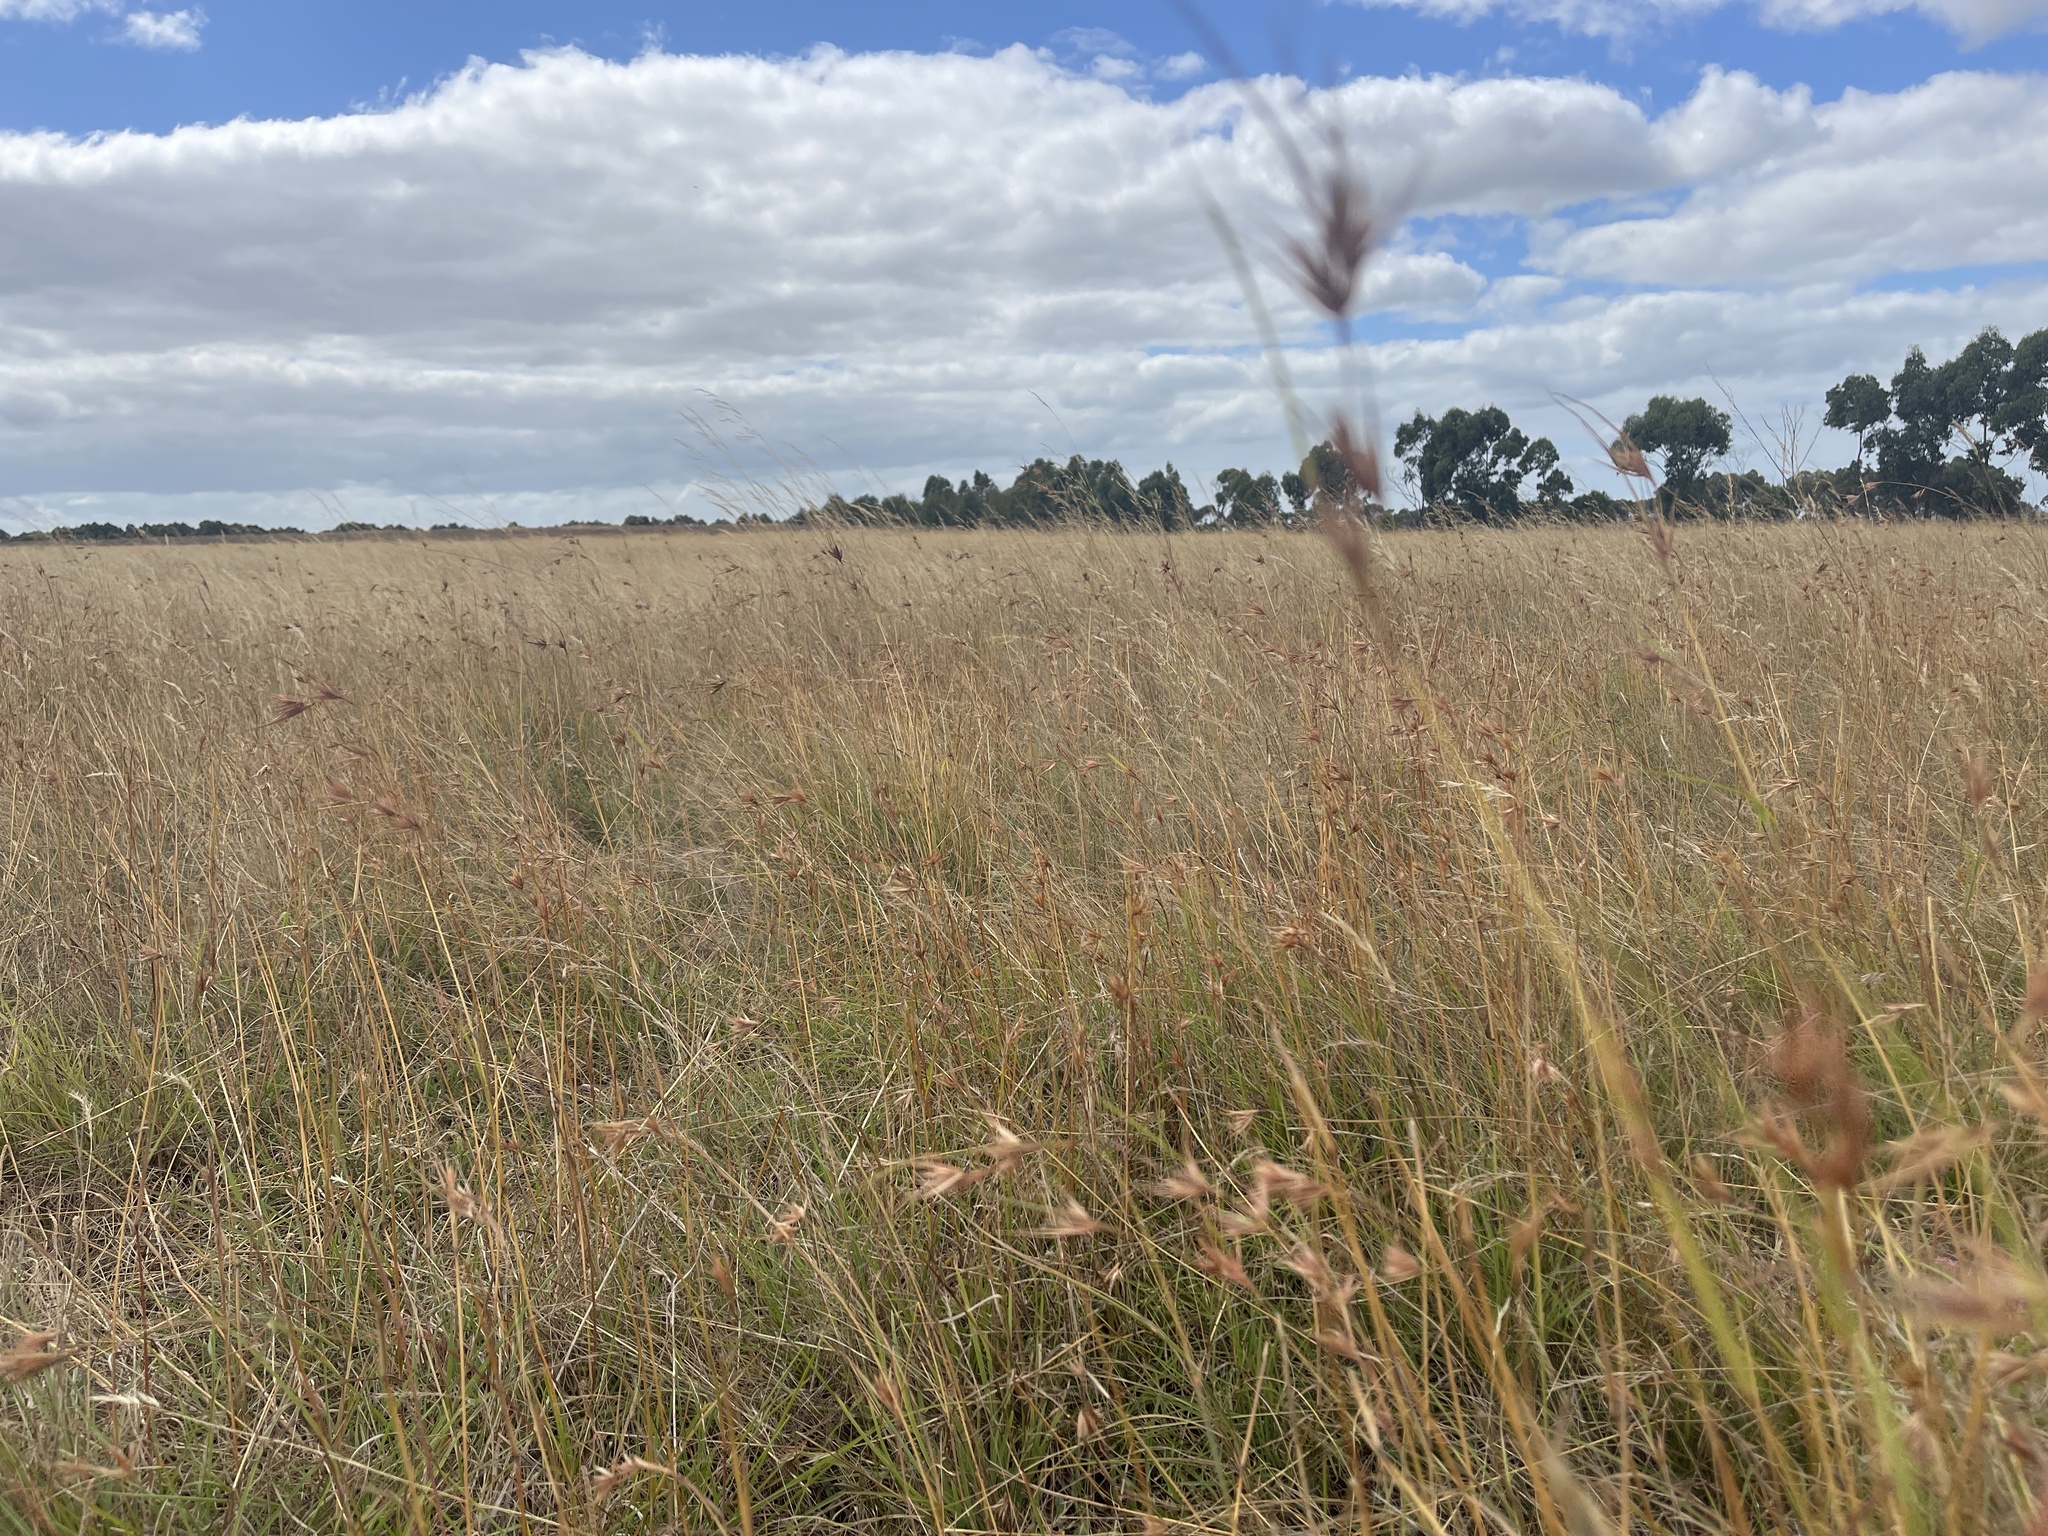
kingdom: Plantae
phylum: Tracheophyta
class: Liliopsida
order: Poales
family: Poaceae
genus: Themeda
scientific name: Themeda triandra
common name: Kangaroo grass
